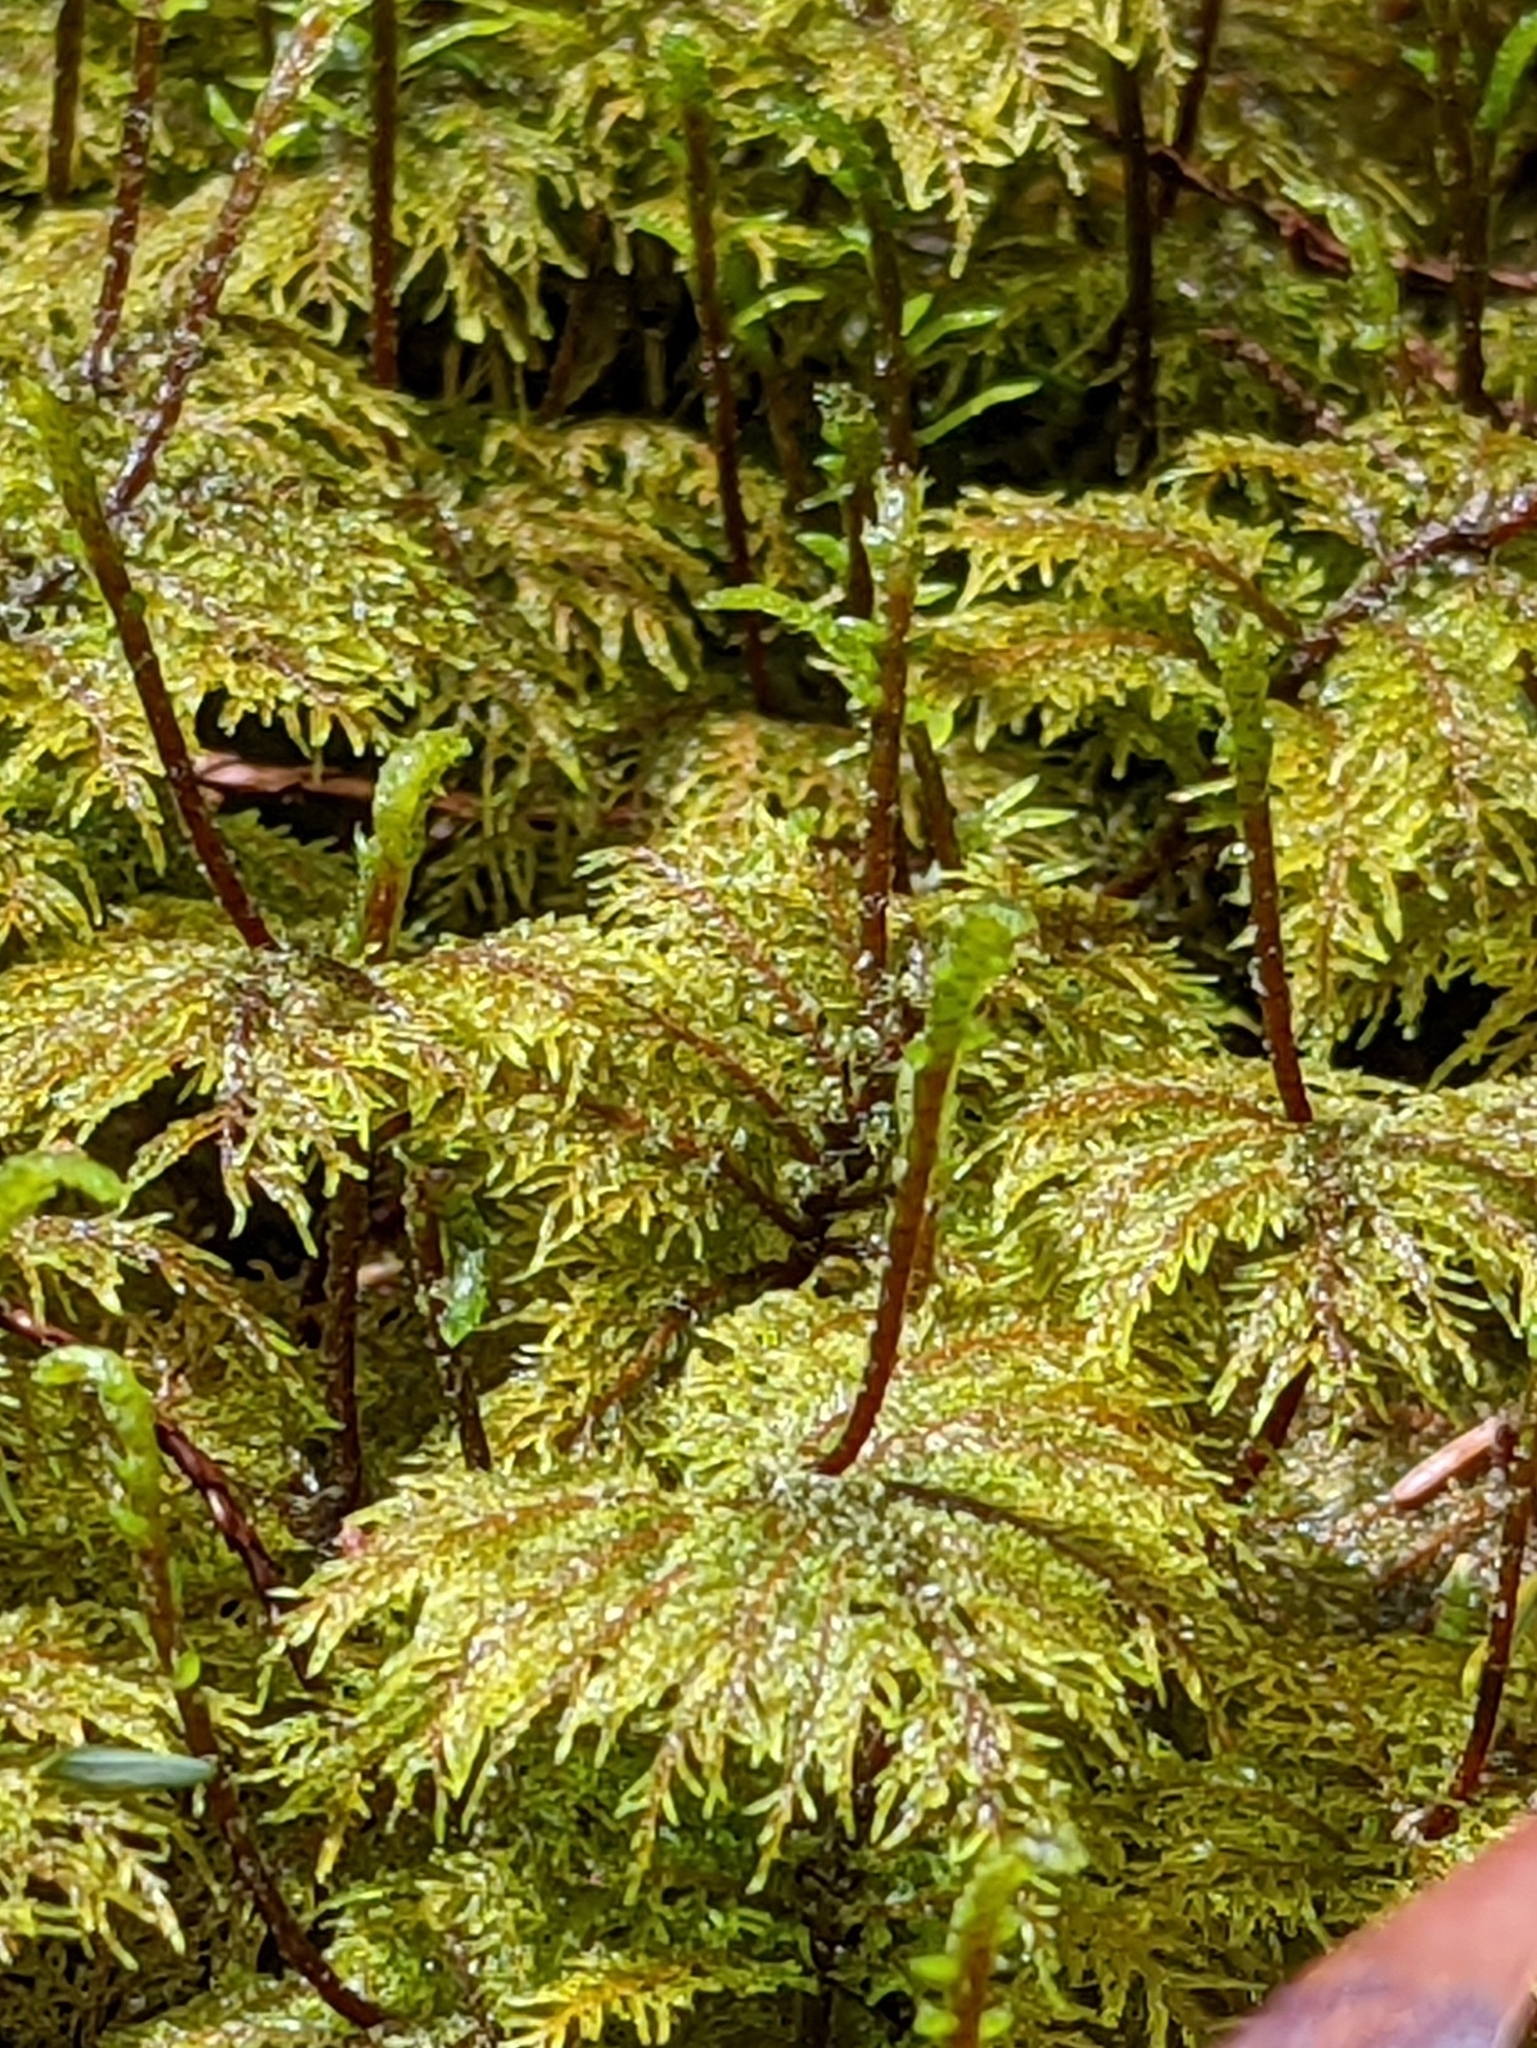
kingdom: Plantae
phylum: Bryophyta
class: Bryopsida
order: Hypnales
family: Hylocomiaceae
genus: Hylocomium
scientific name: Hylocomium splendens
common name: Stairstep moss
